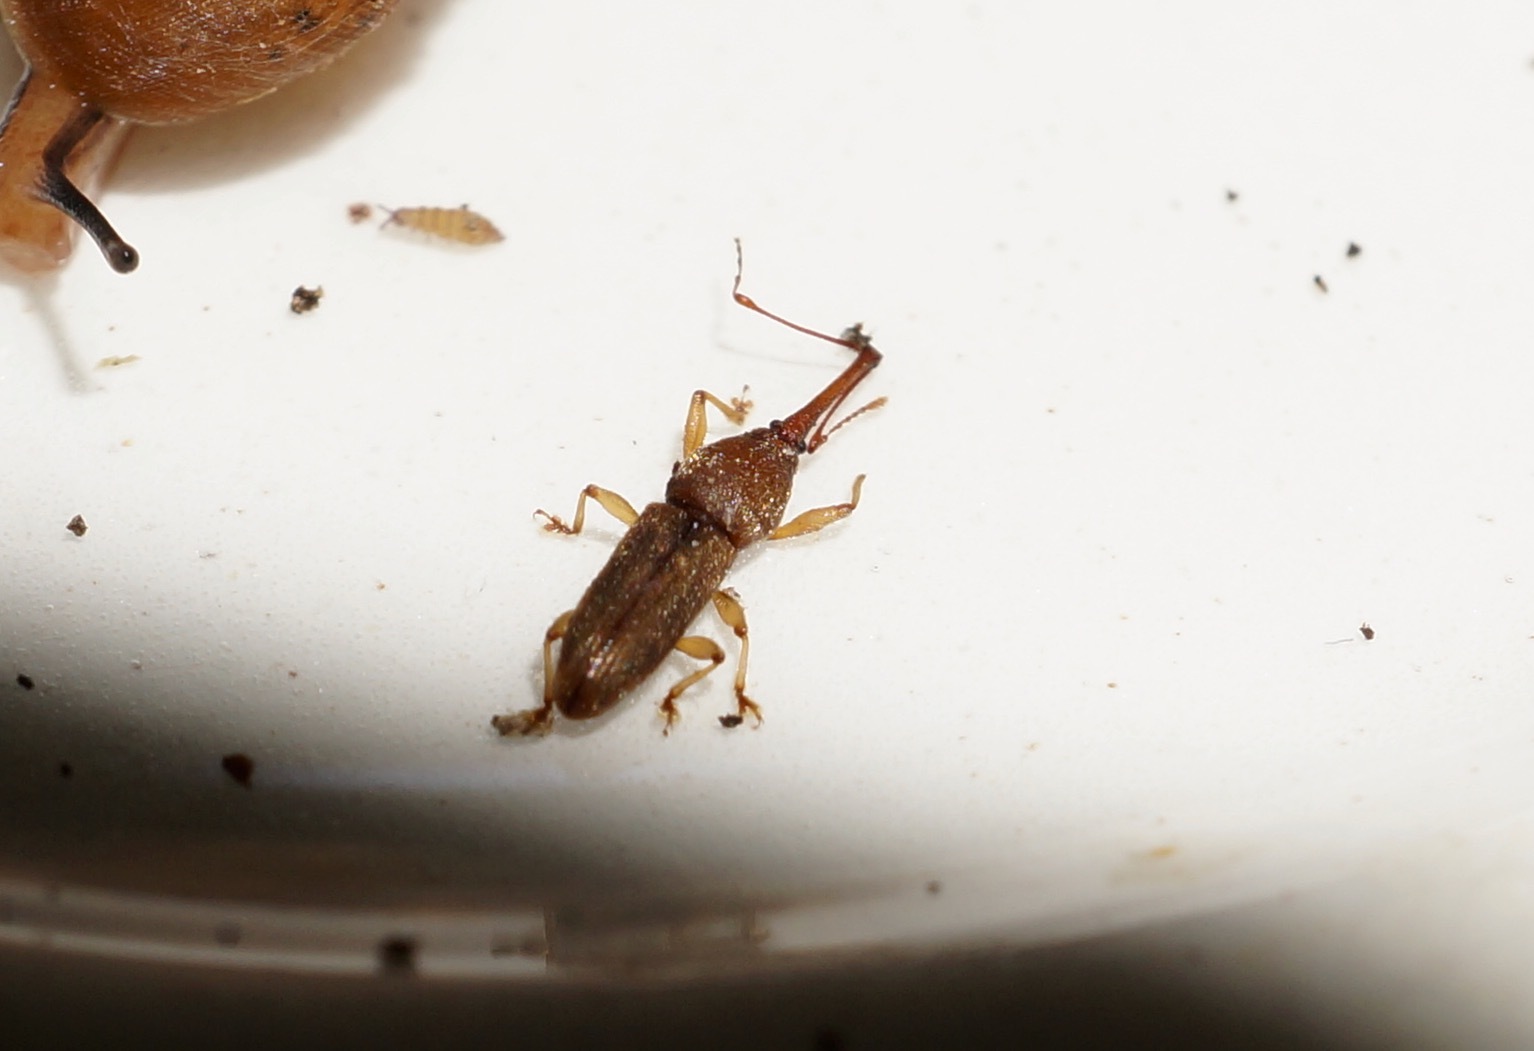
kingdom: Animalia
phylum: Arthropoda
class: Insecta
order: Coleoptera
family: Curculionidae
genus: Arecocryptus
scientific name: Arecocryptus bellus
